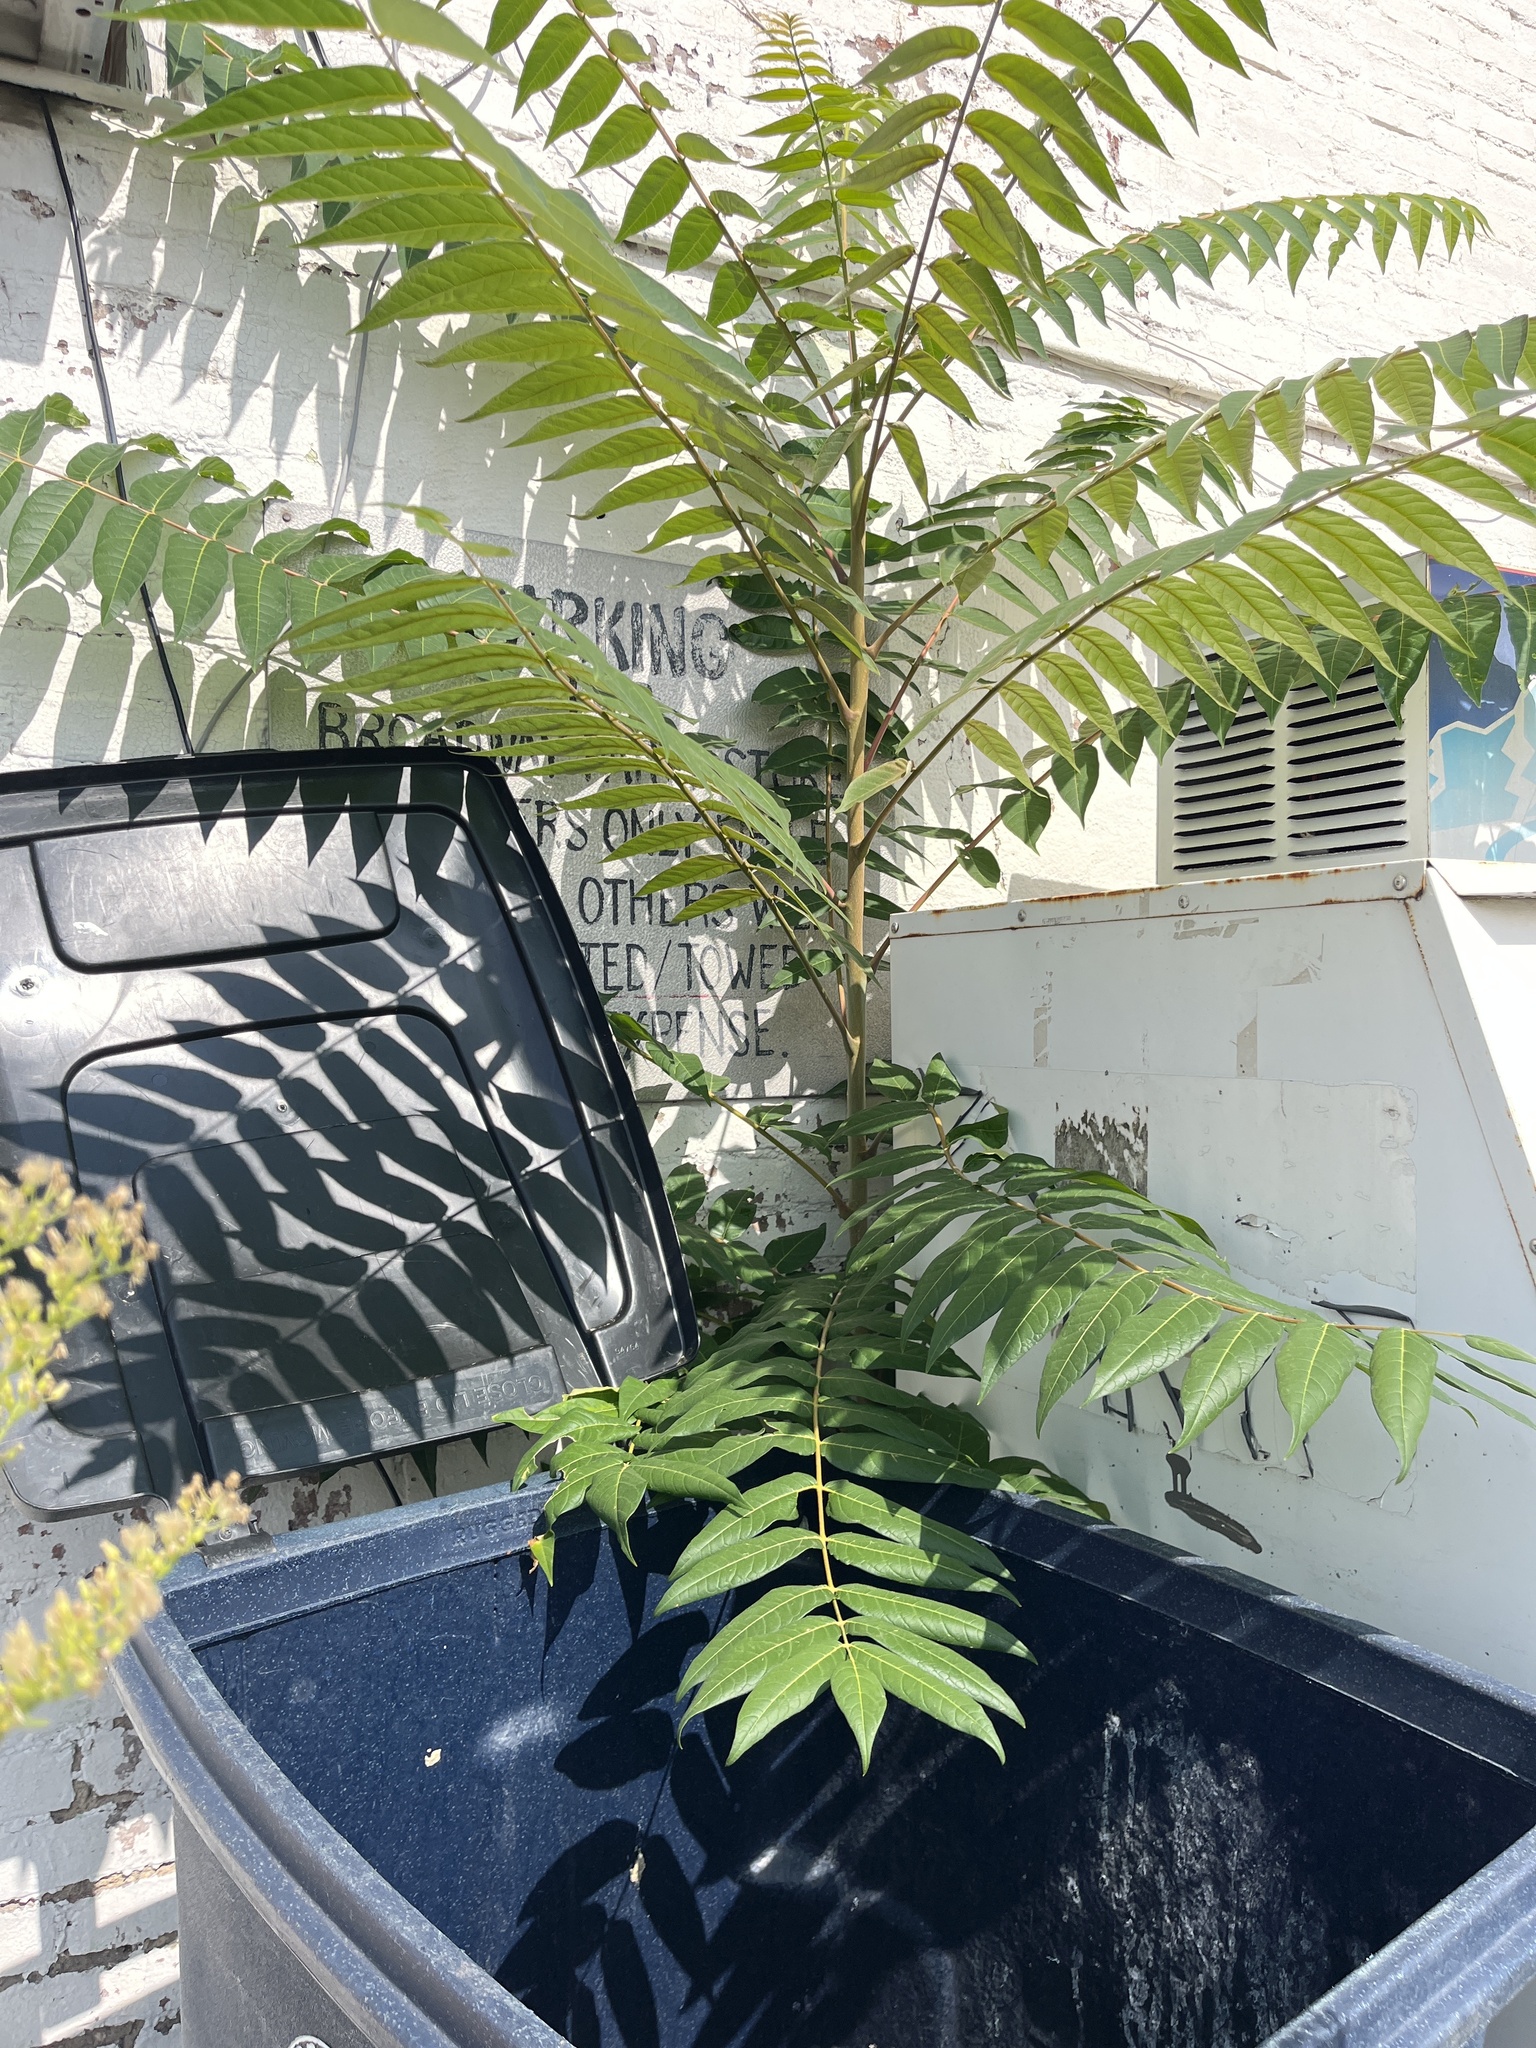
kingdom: Plantae
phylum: Tracheophyta
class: Magnoliopsida
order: Sapindales
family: Simaroubaceae
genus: Ailanthus
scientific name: Ailanthus altissima
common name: Tree-of-heaven
